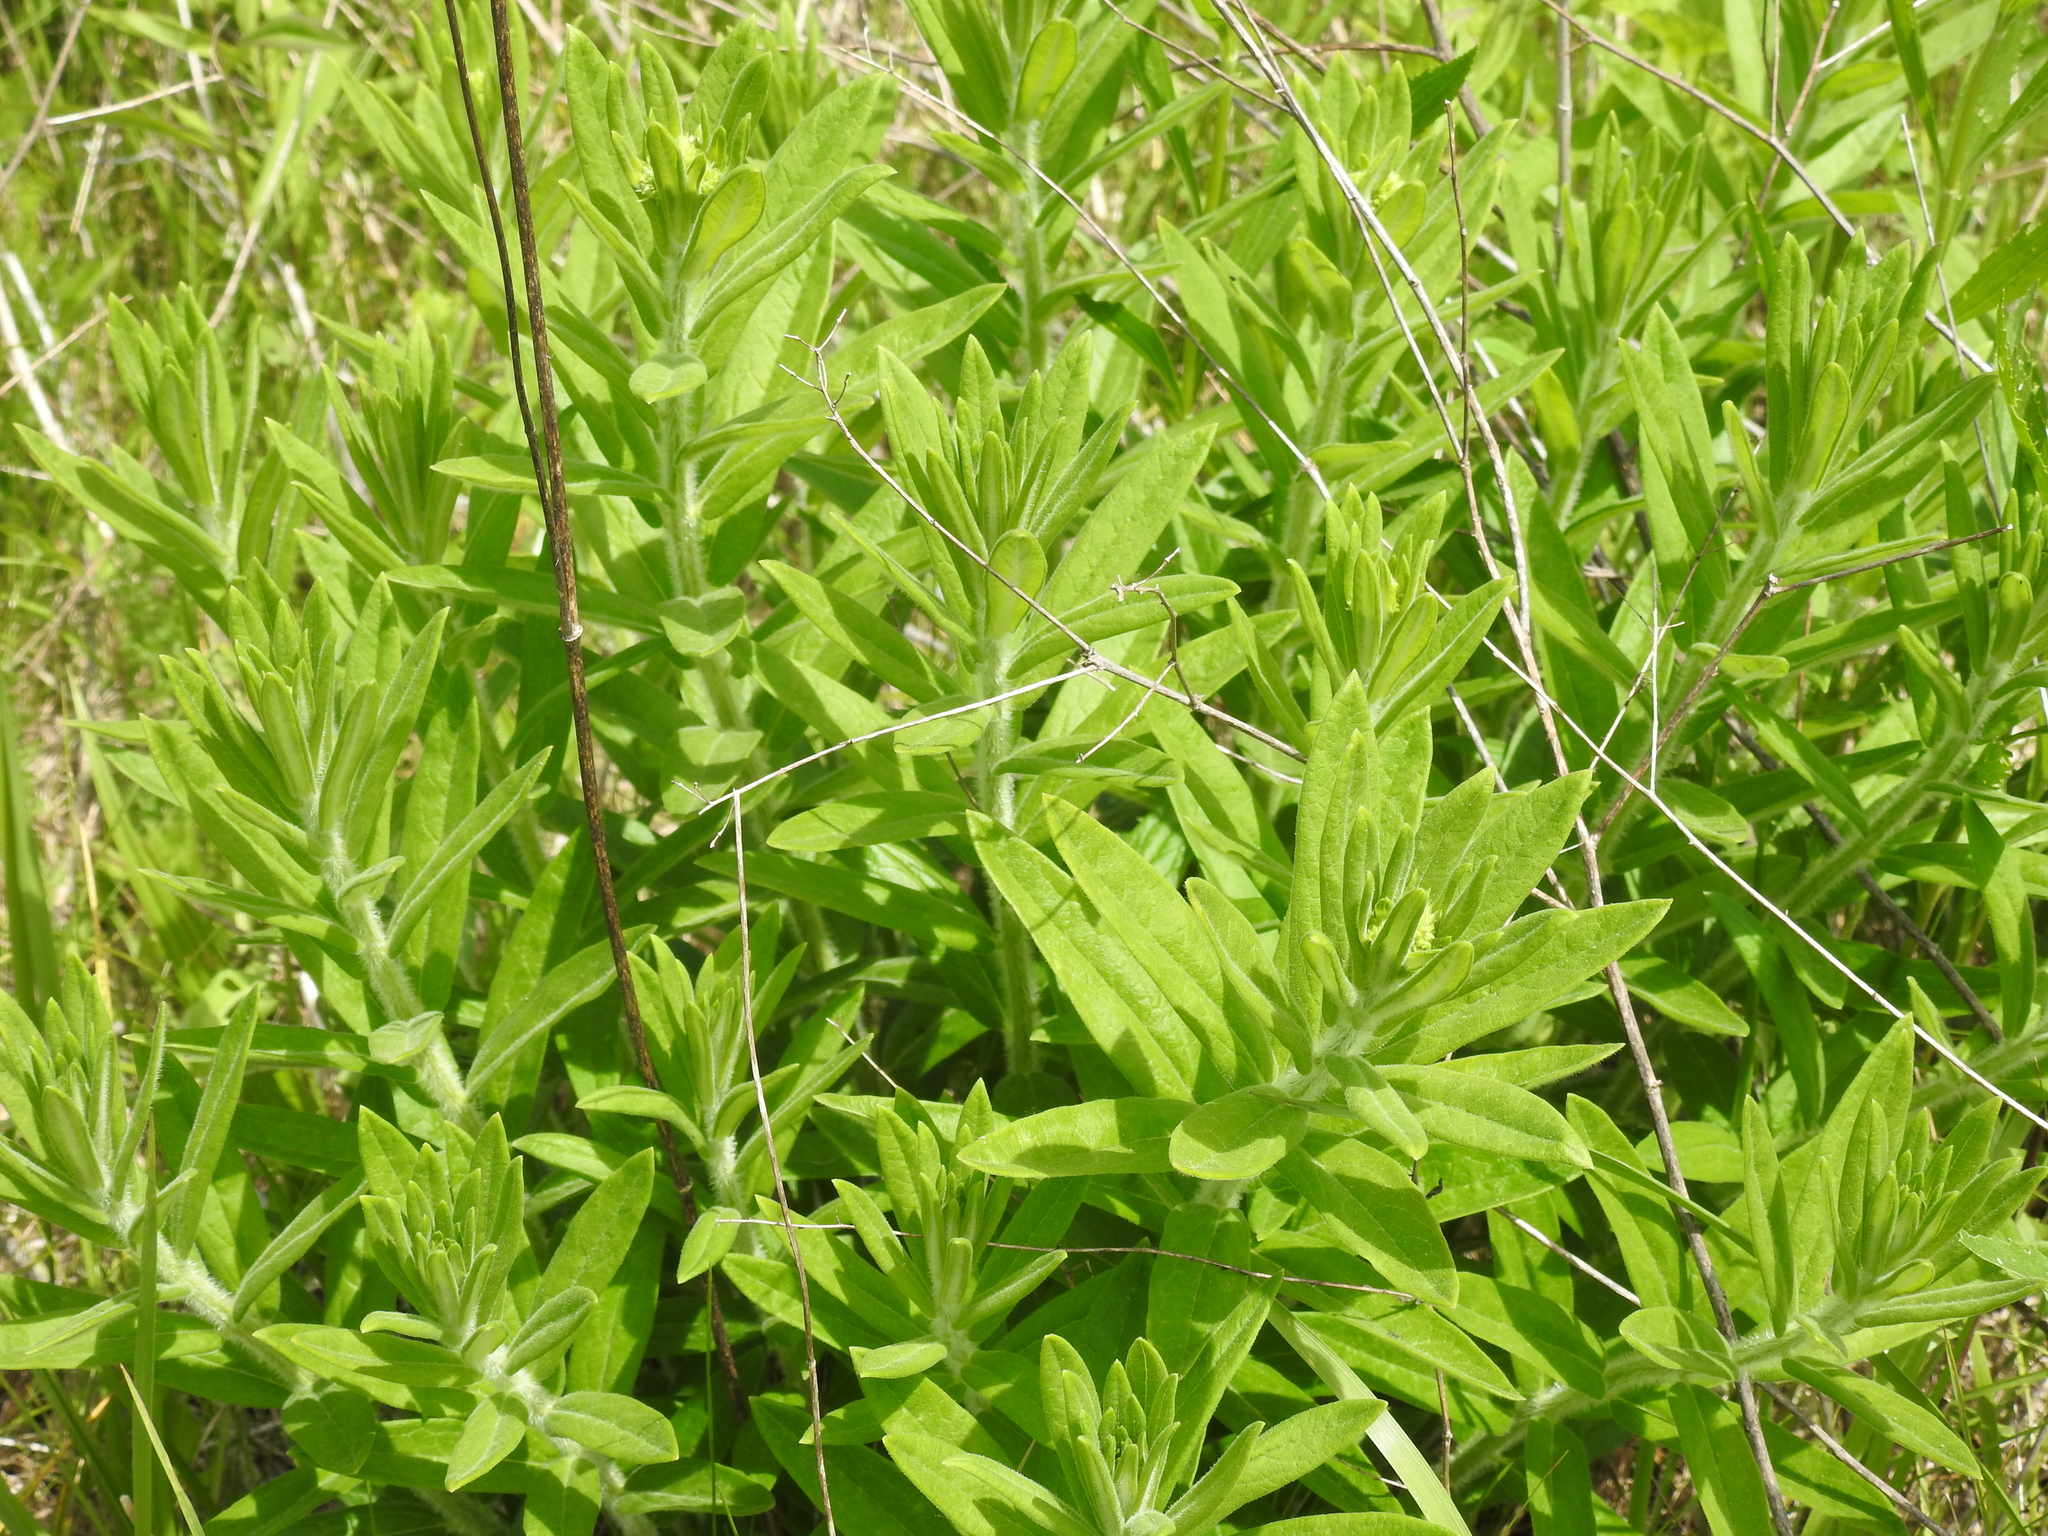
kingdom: Plantae
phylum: Tracheophyta
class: Magnoliopsida
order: Gentianales
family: Apocynaceae
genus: Asclepias
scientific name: Asclepias tuberosa
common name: Butterfly milkweed
